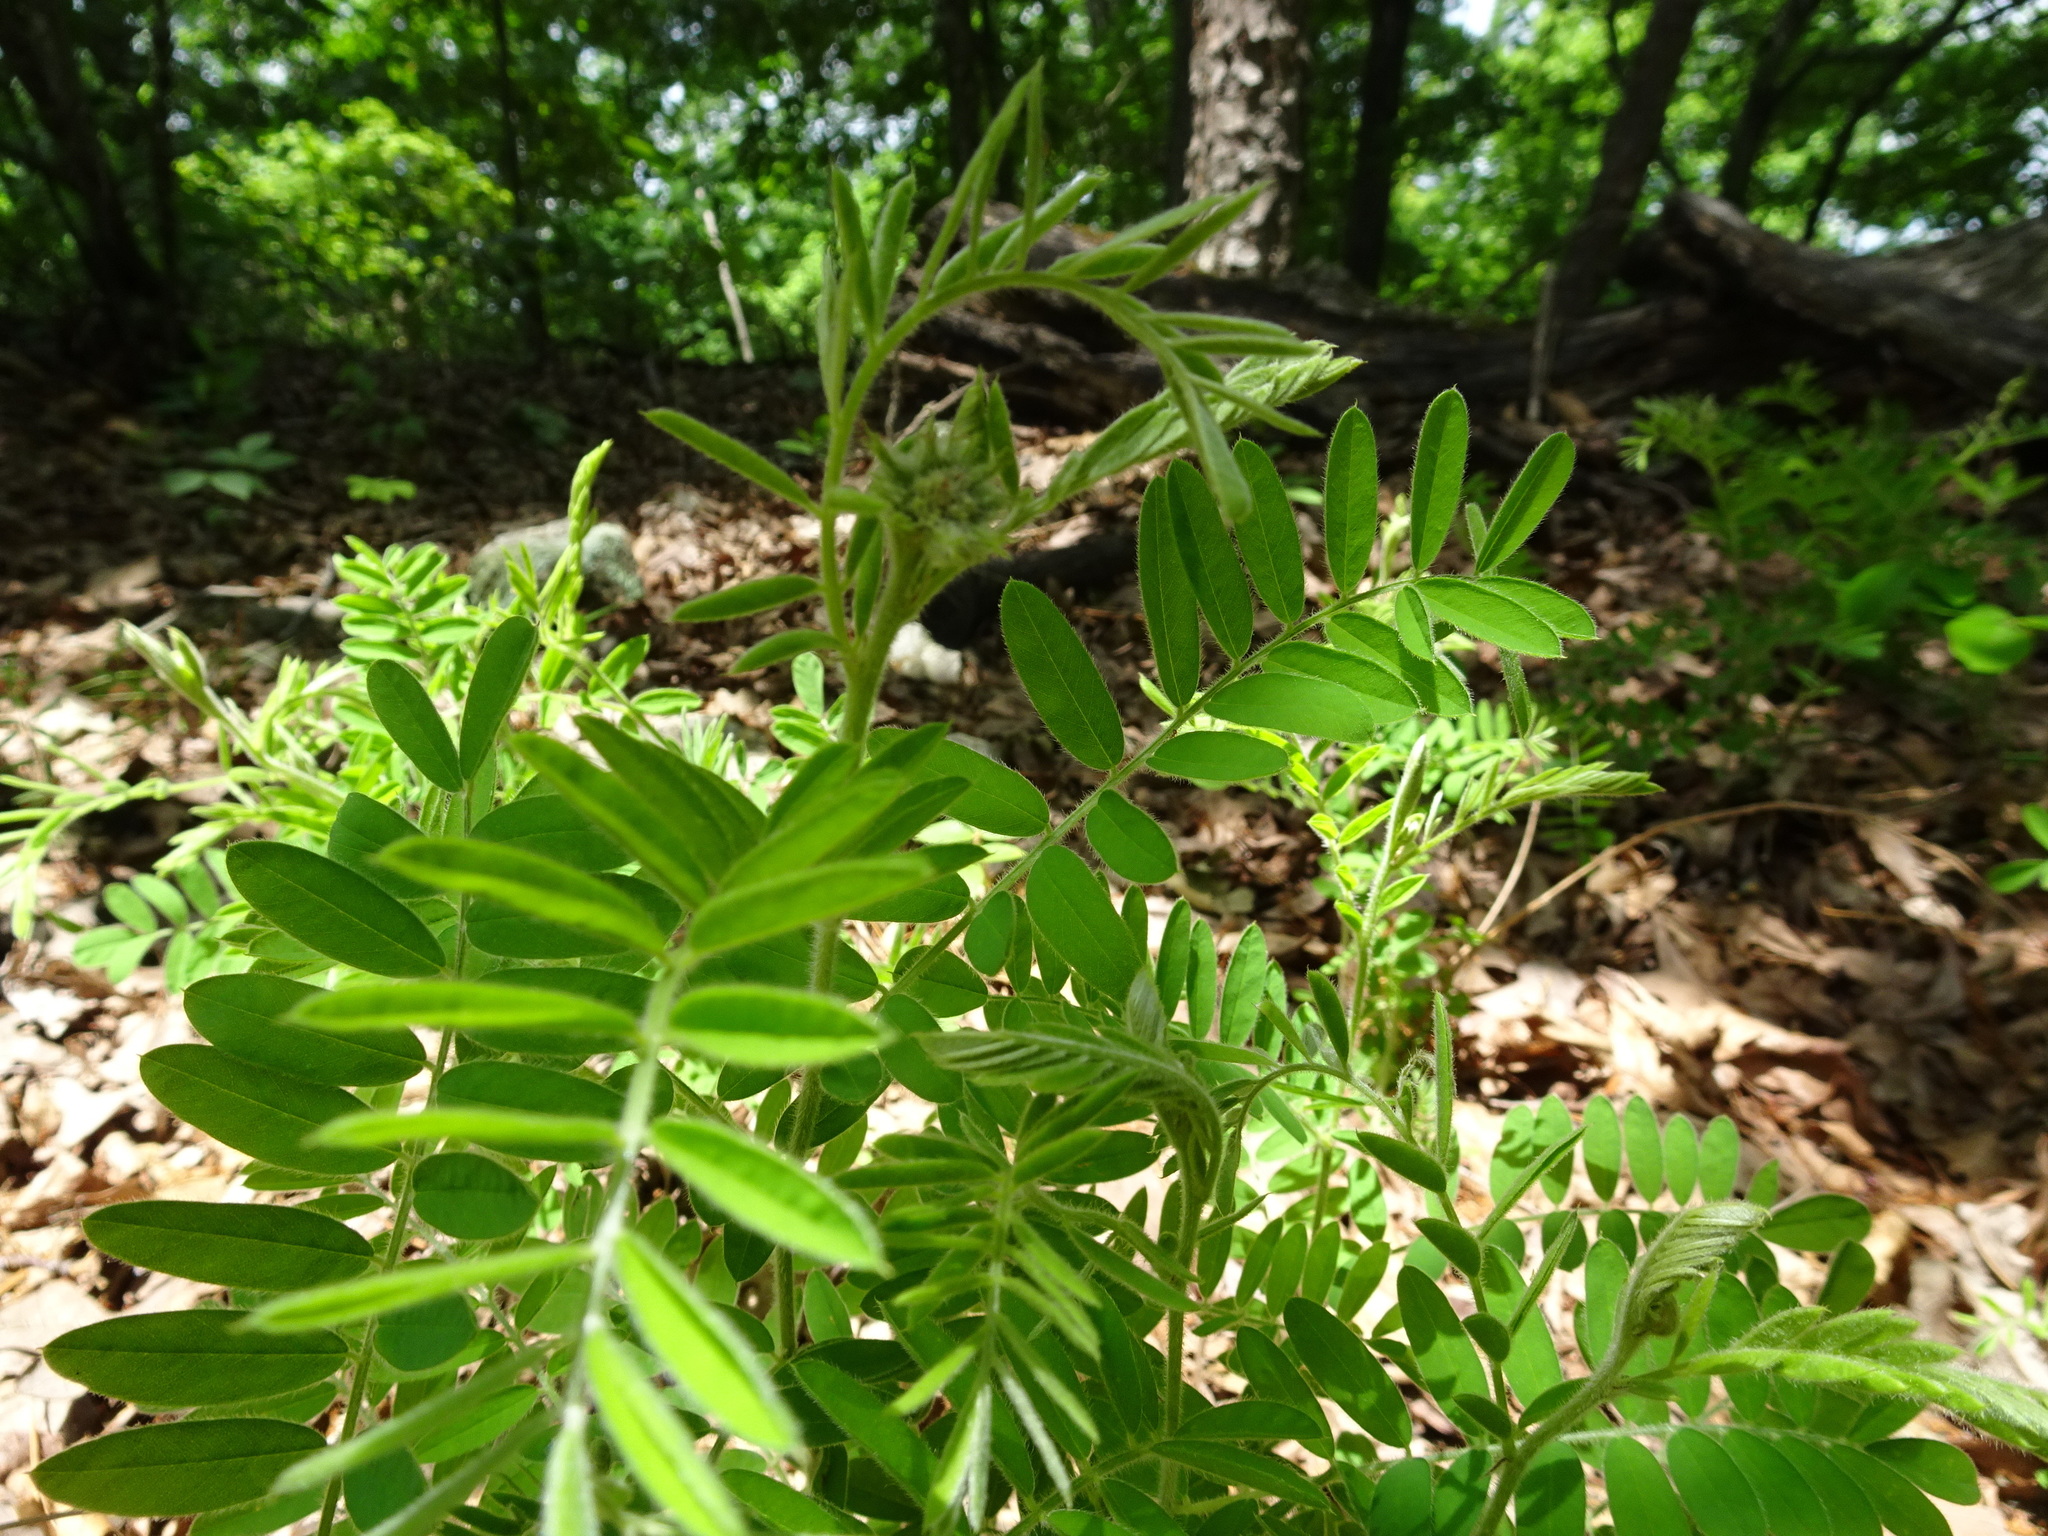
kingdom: Plantae
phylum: Tracheophyta
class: Magnoliopsida
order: Fabales
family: Fabaceae
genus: Tephrosia
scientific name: Tephrosia virginiana
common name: Rabbit-pea
